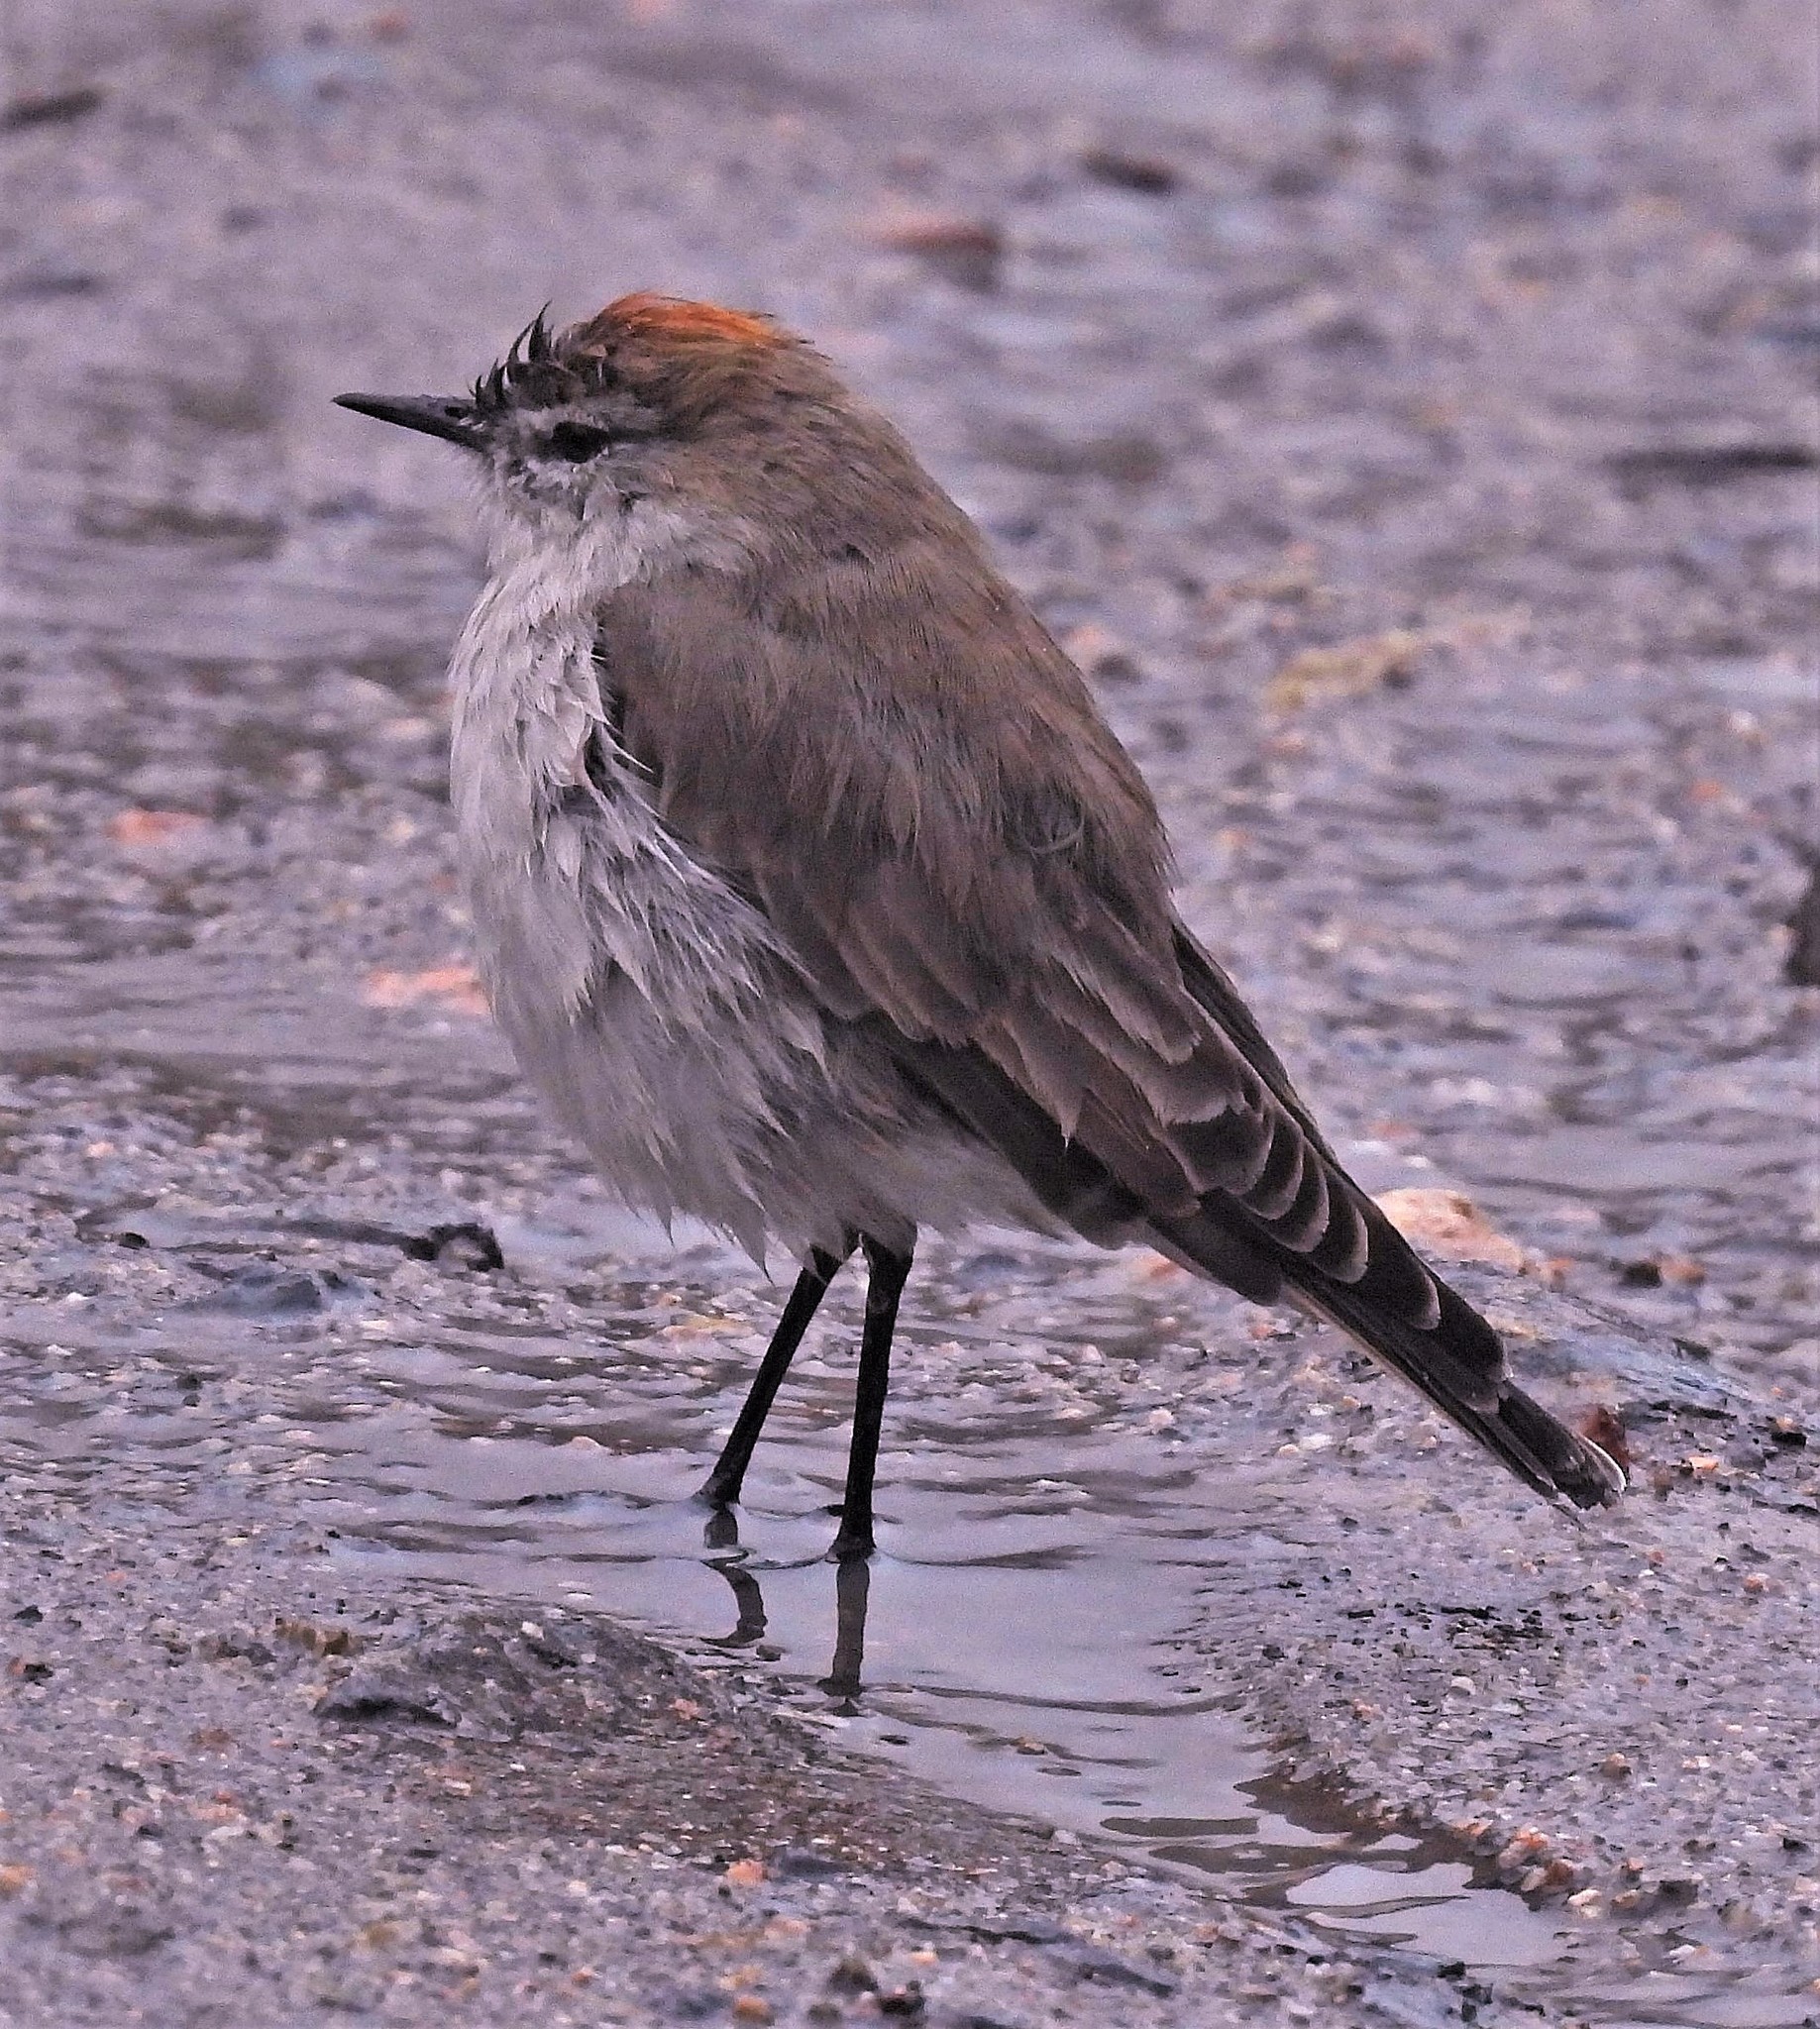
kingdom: Animalia
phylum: Chordata
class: Aves
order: Passeriformes
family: Tyrannidae
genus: Muscisaxicola
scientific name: Muscisaxicola albilora
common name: White-browed ground tyrant
